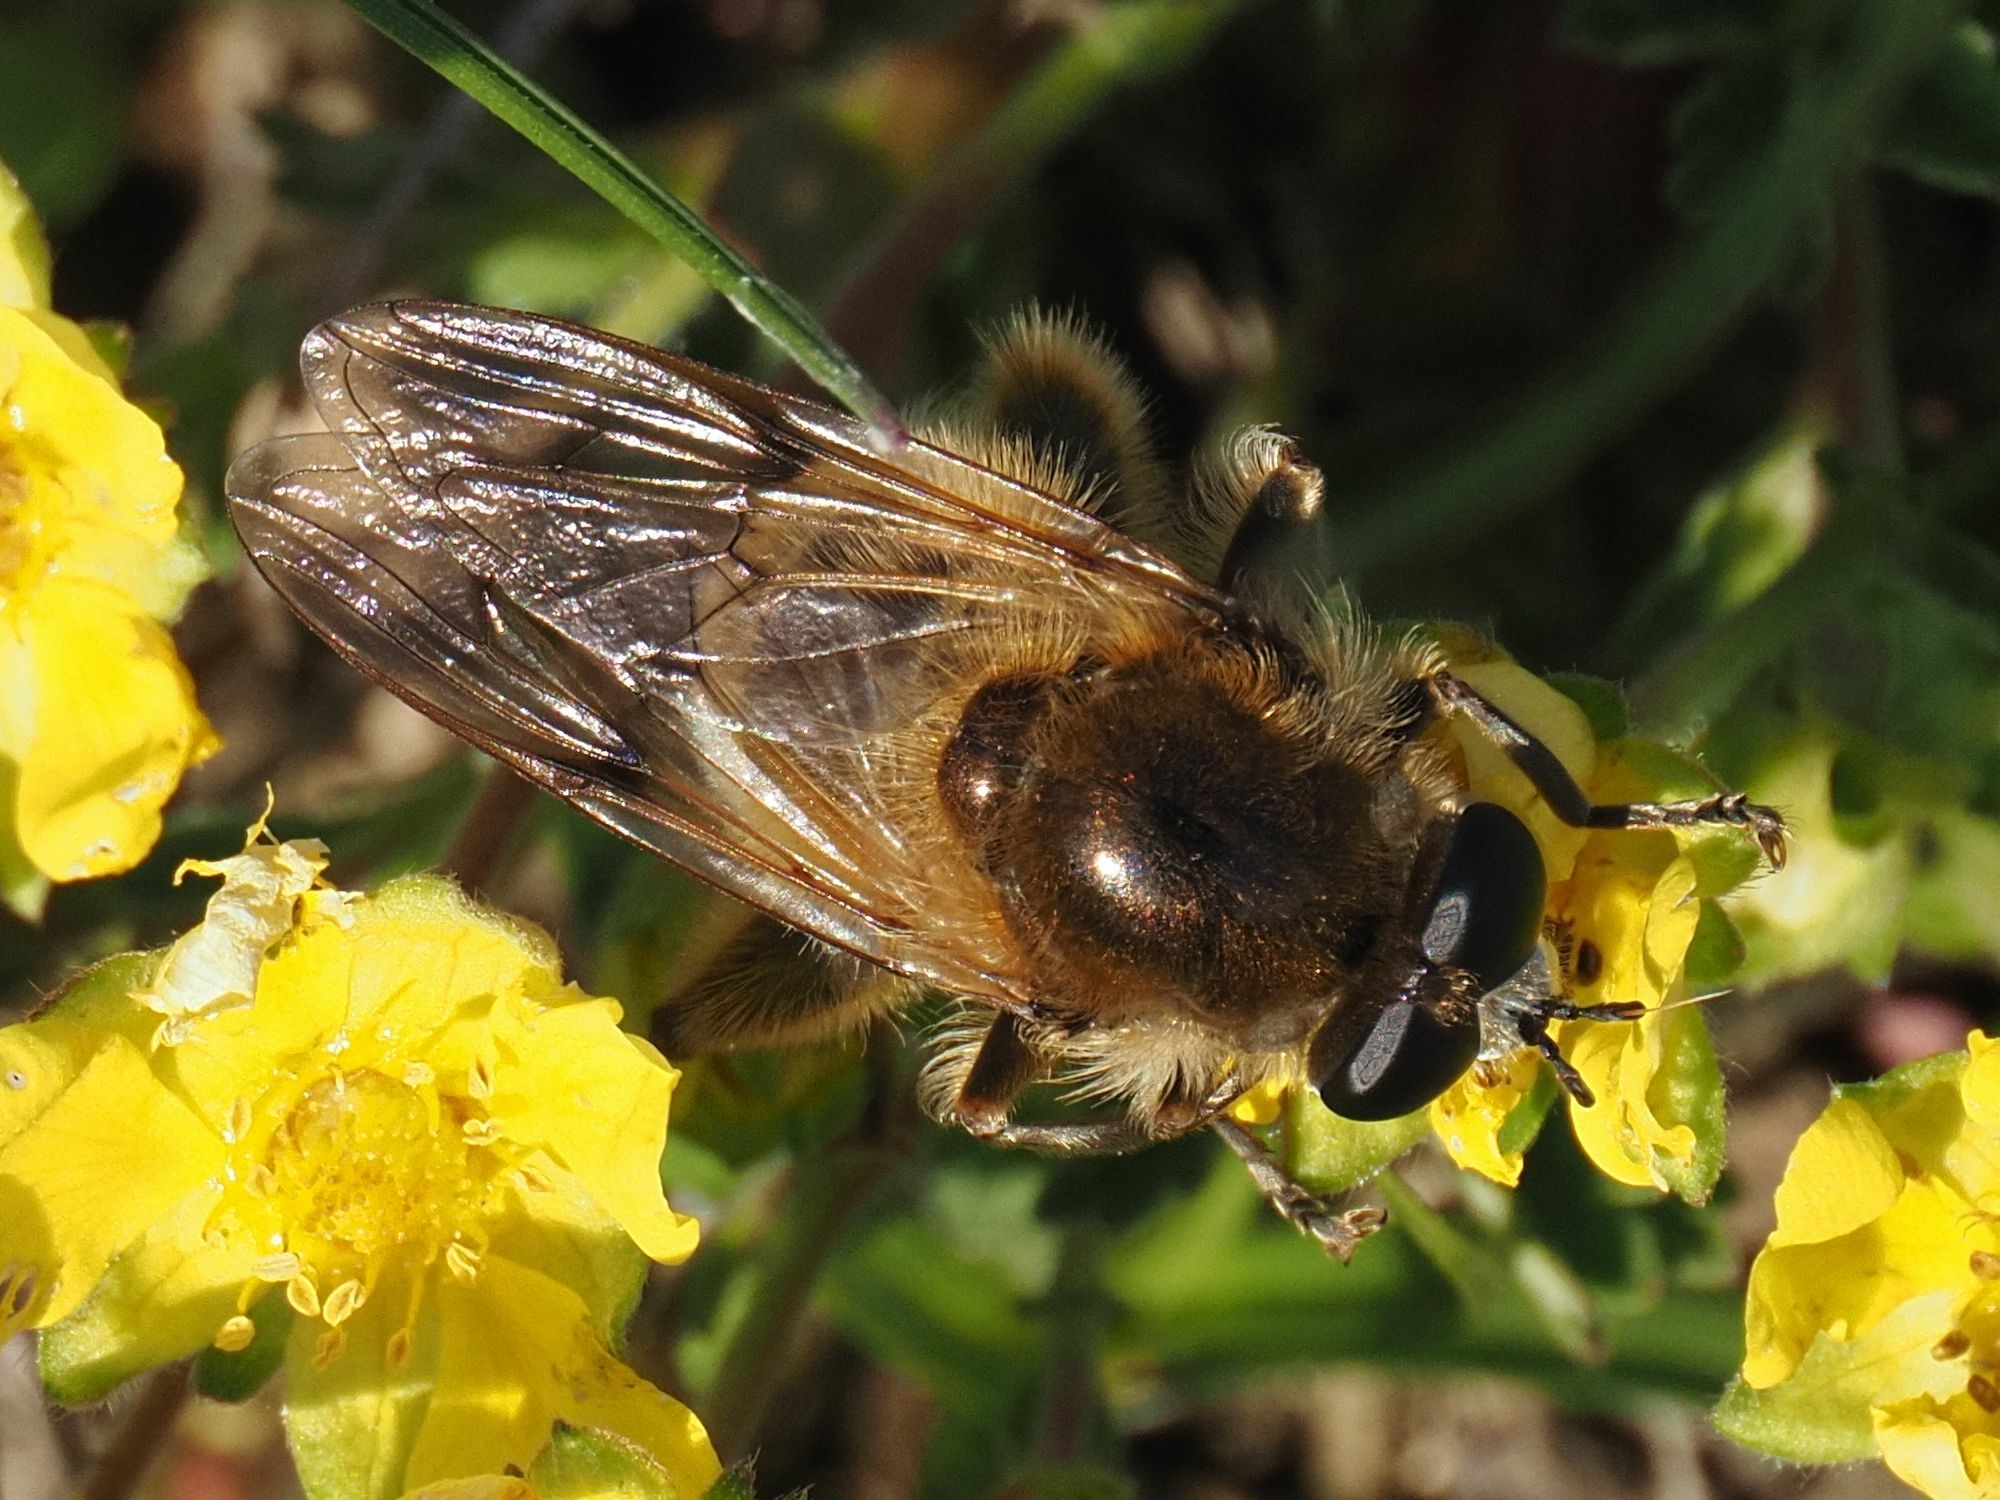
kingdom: Animalia
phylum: Arthropoda
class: Insecta
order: Diptera
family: Syrphidae
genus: Brachypalpus
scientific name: Brachypalpus valgus
